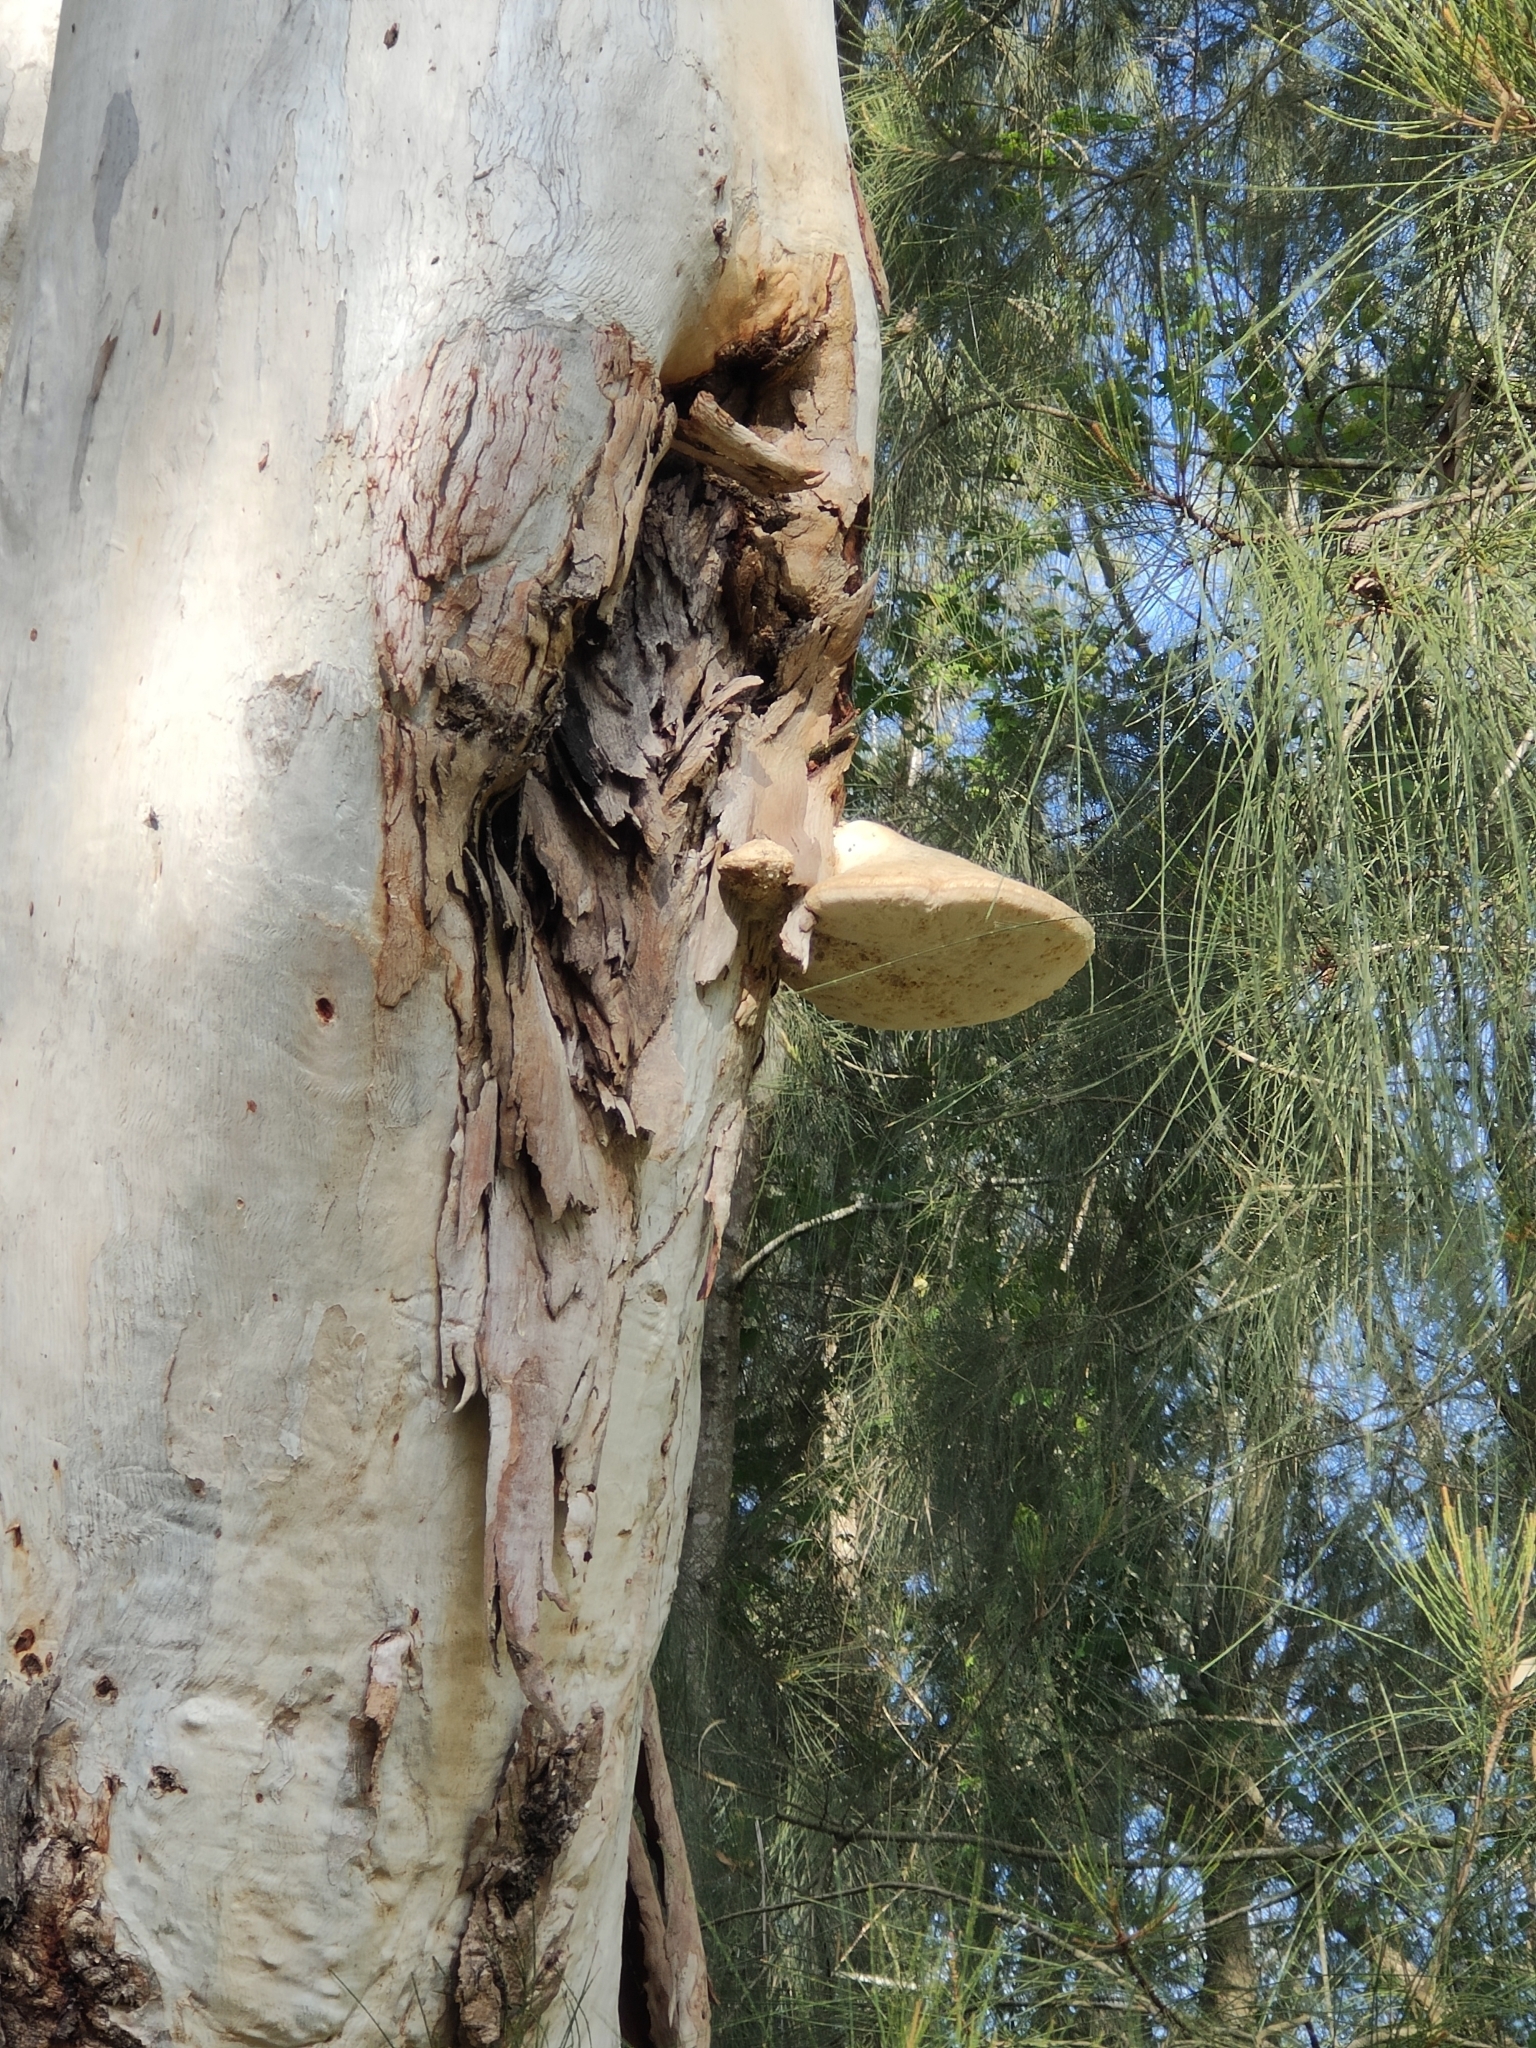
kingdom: Fungi
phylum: Basidiomycota
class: Agaricomycetes
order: Polyporales
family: Laetiporaceae
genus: Laetiporus
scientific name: Laetiporus portentosus
